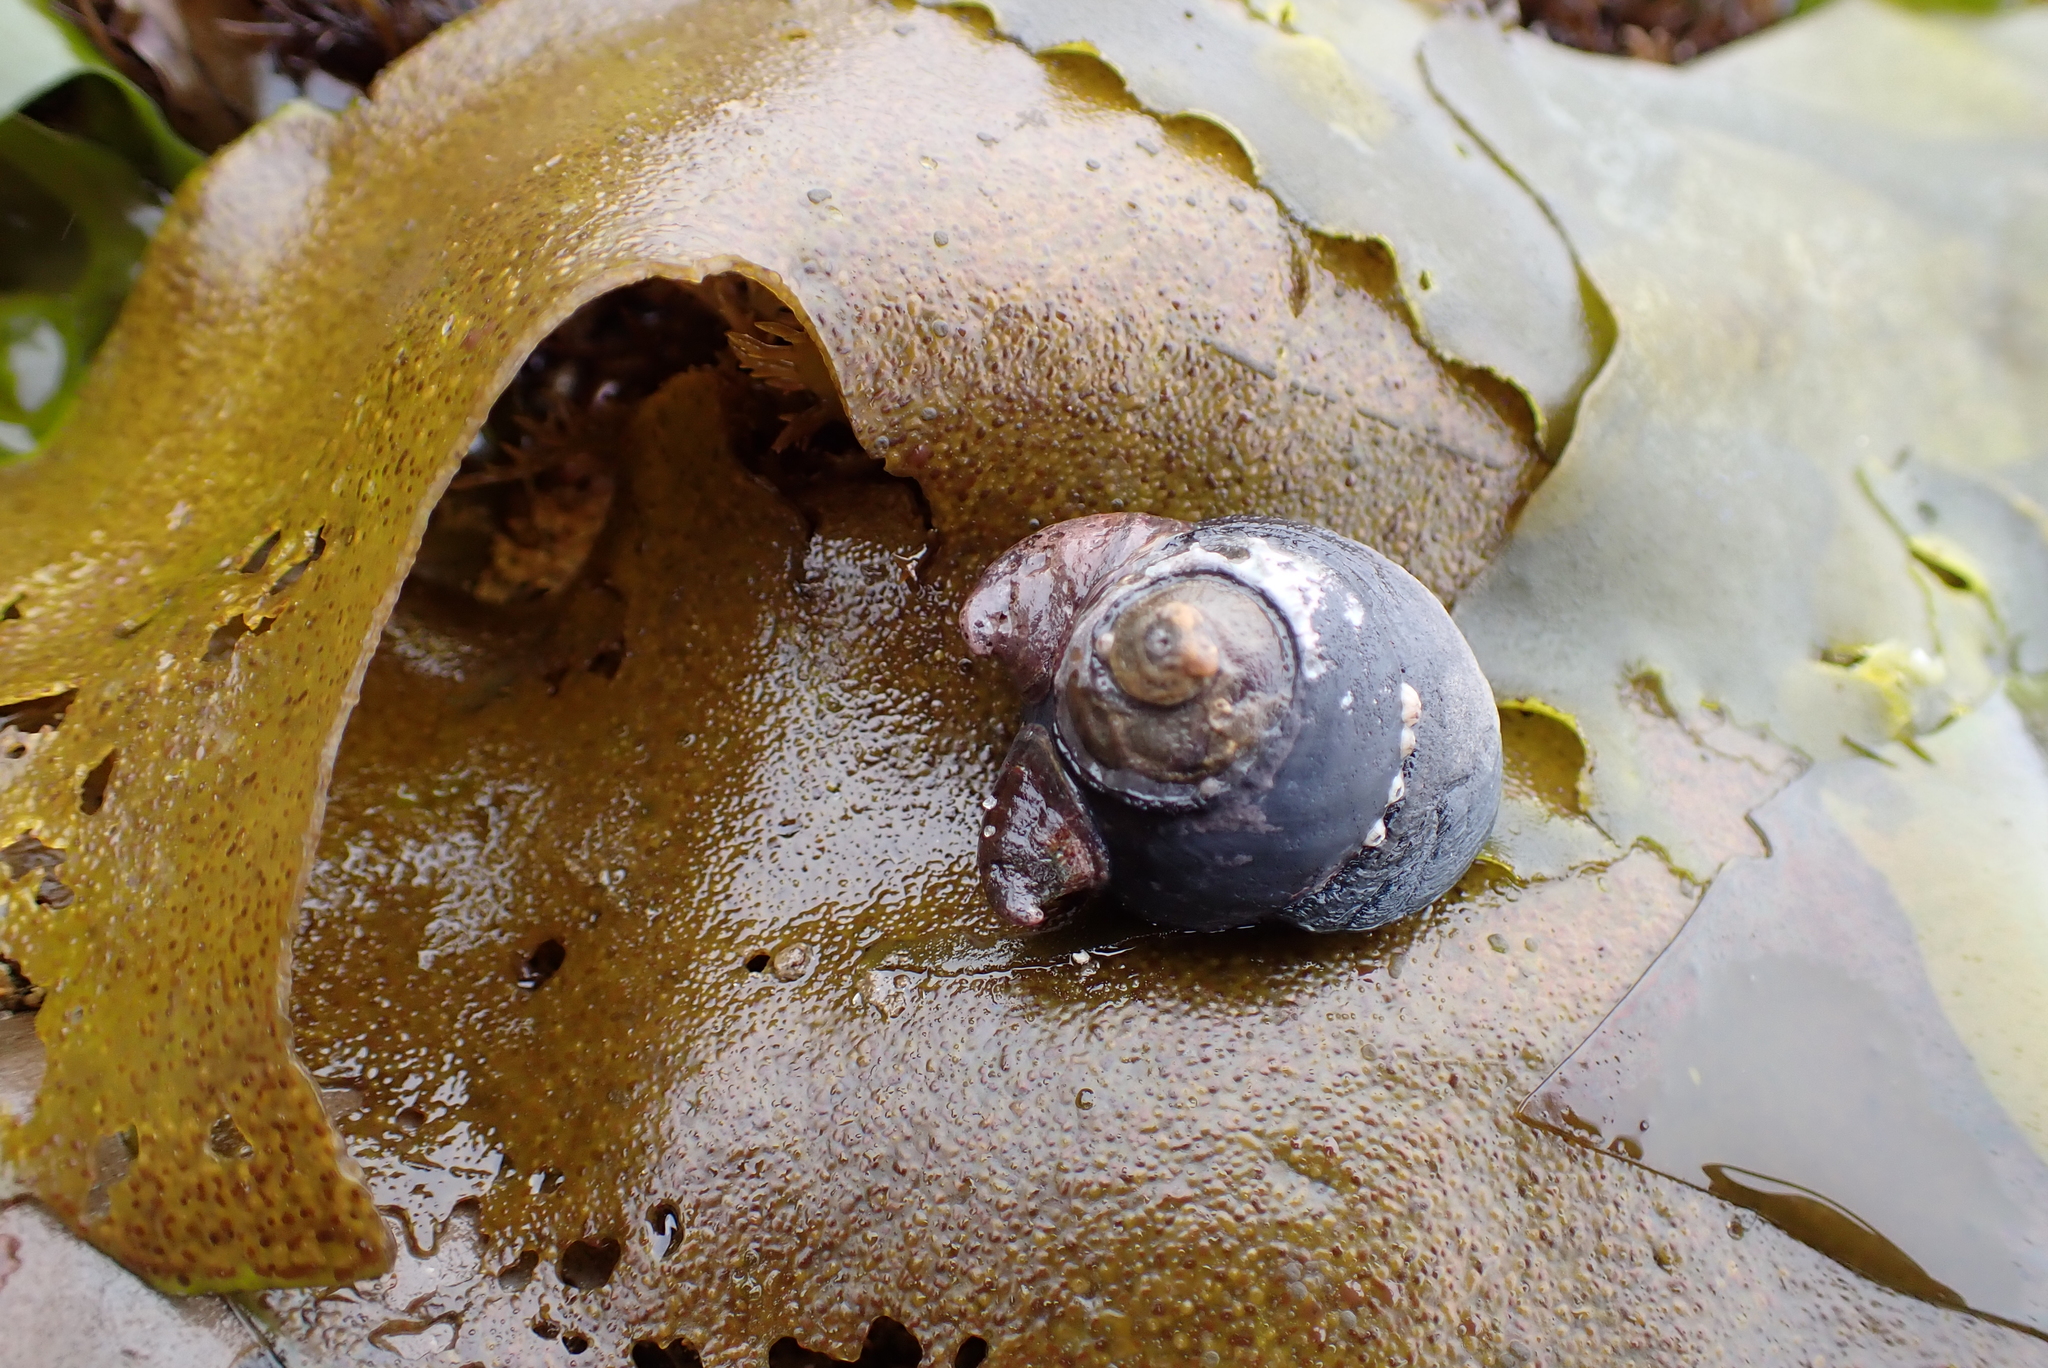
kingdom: Animalia
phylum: Mollusca
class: Gastropoda
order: Trochida
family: Tegulidae
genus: Tegula
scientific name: Tegula funebralis
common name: Black tegula
